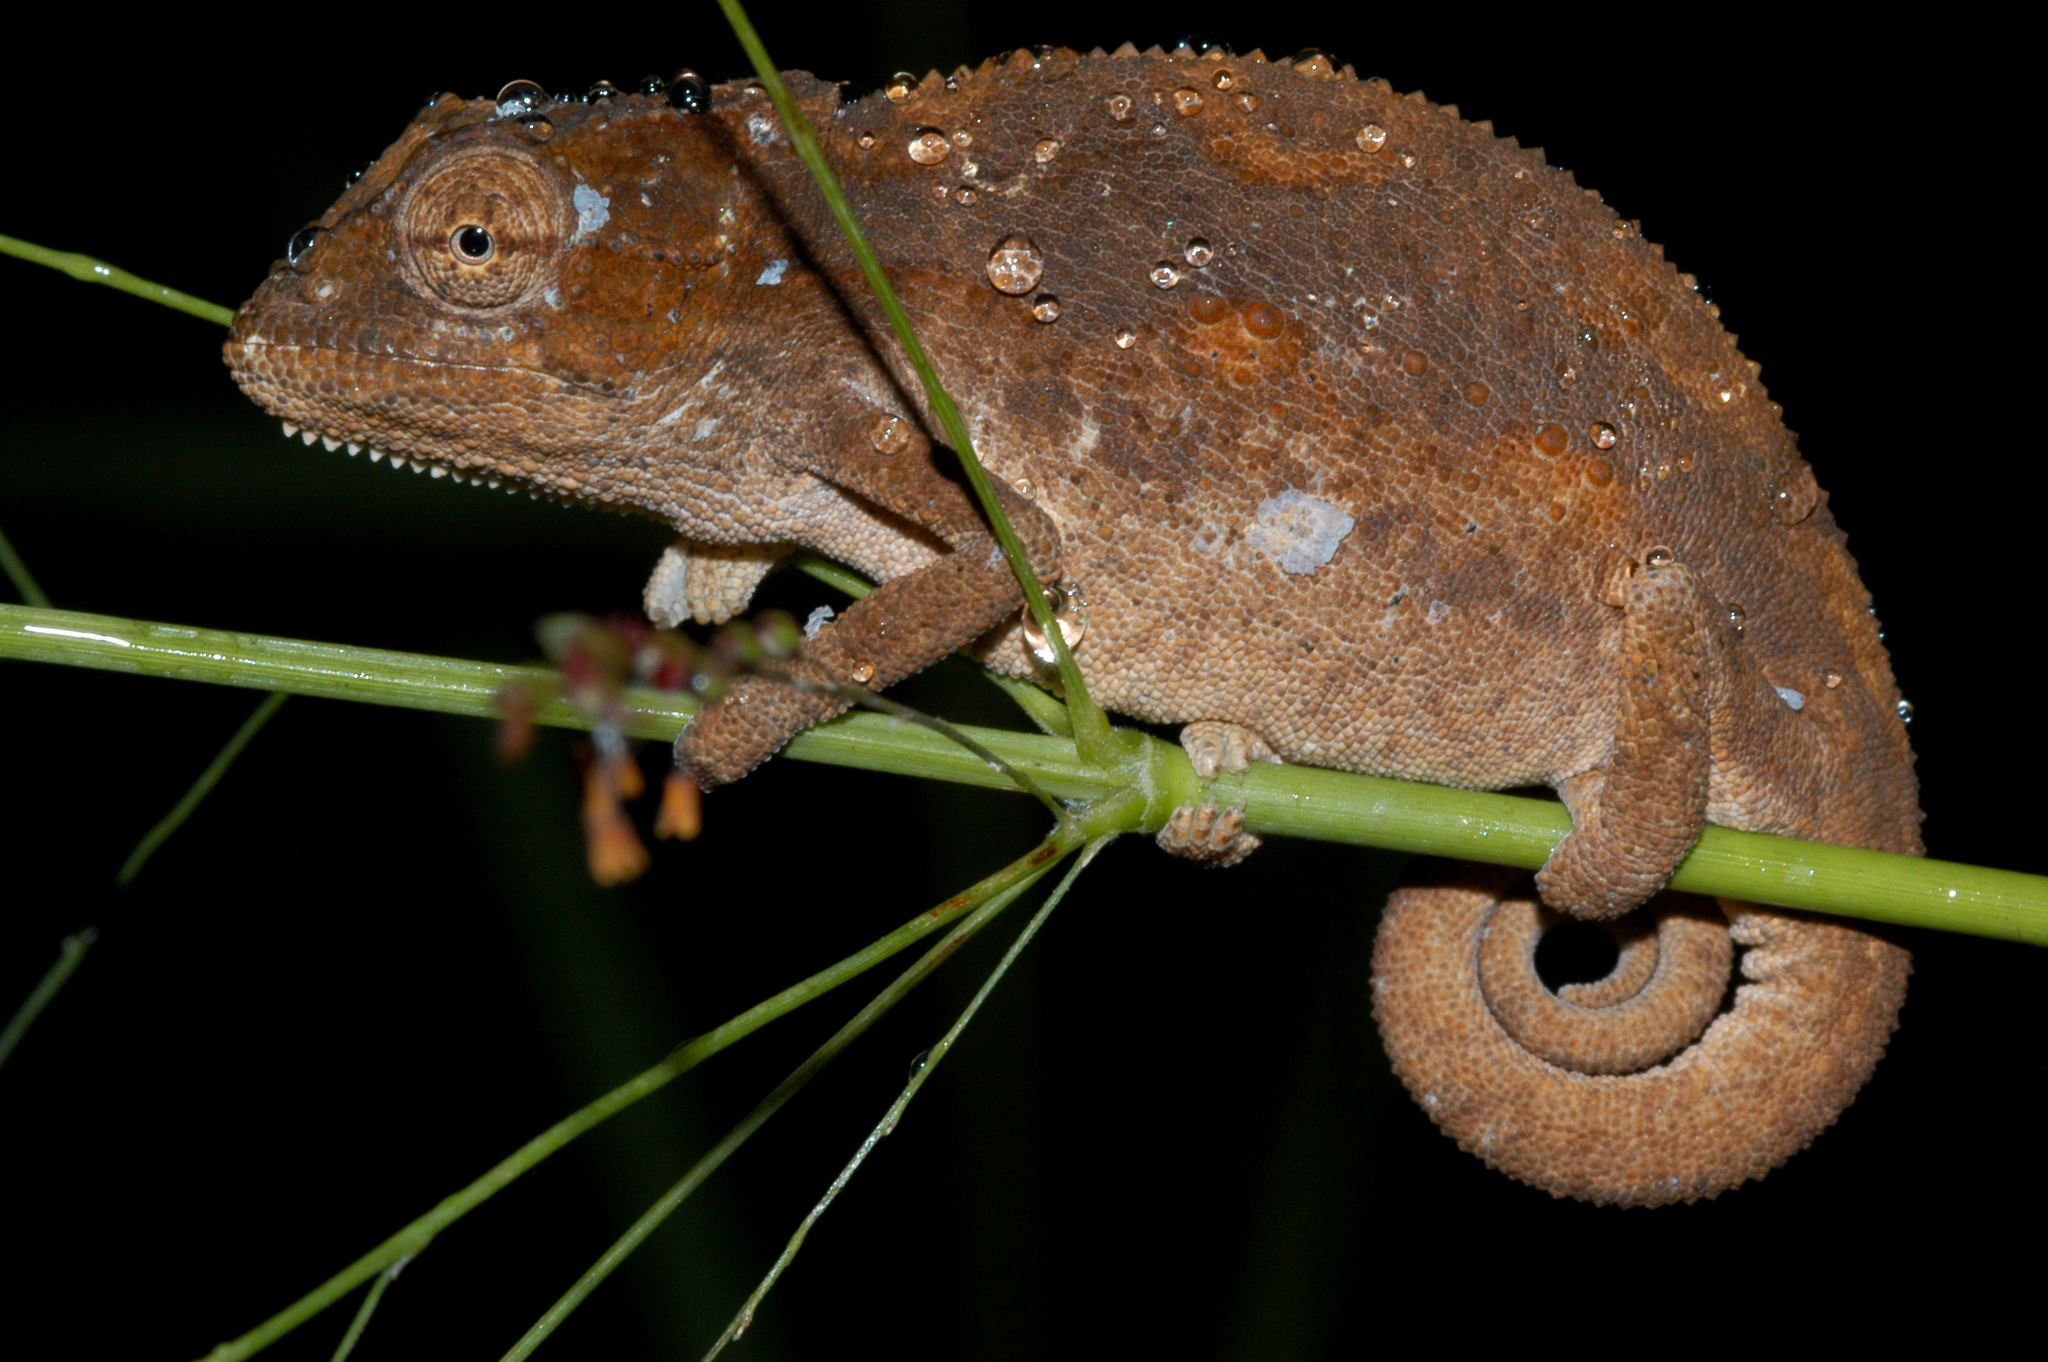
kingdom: Animalia
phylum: Chordata
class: Squamata
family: Chamaeleonidae
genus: Bradypodion
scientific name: Bradypodion melanocephalum
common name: Black-headed dwarf chameleon
